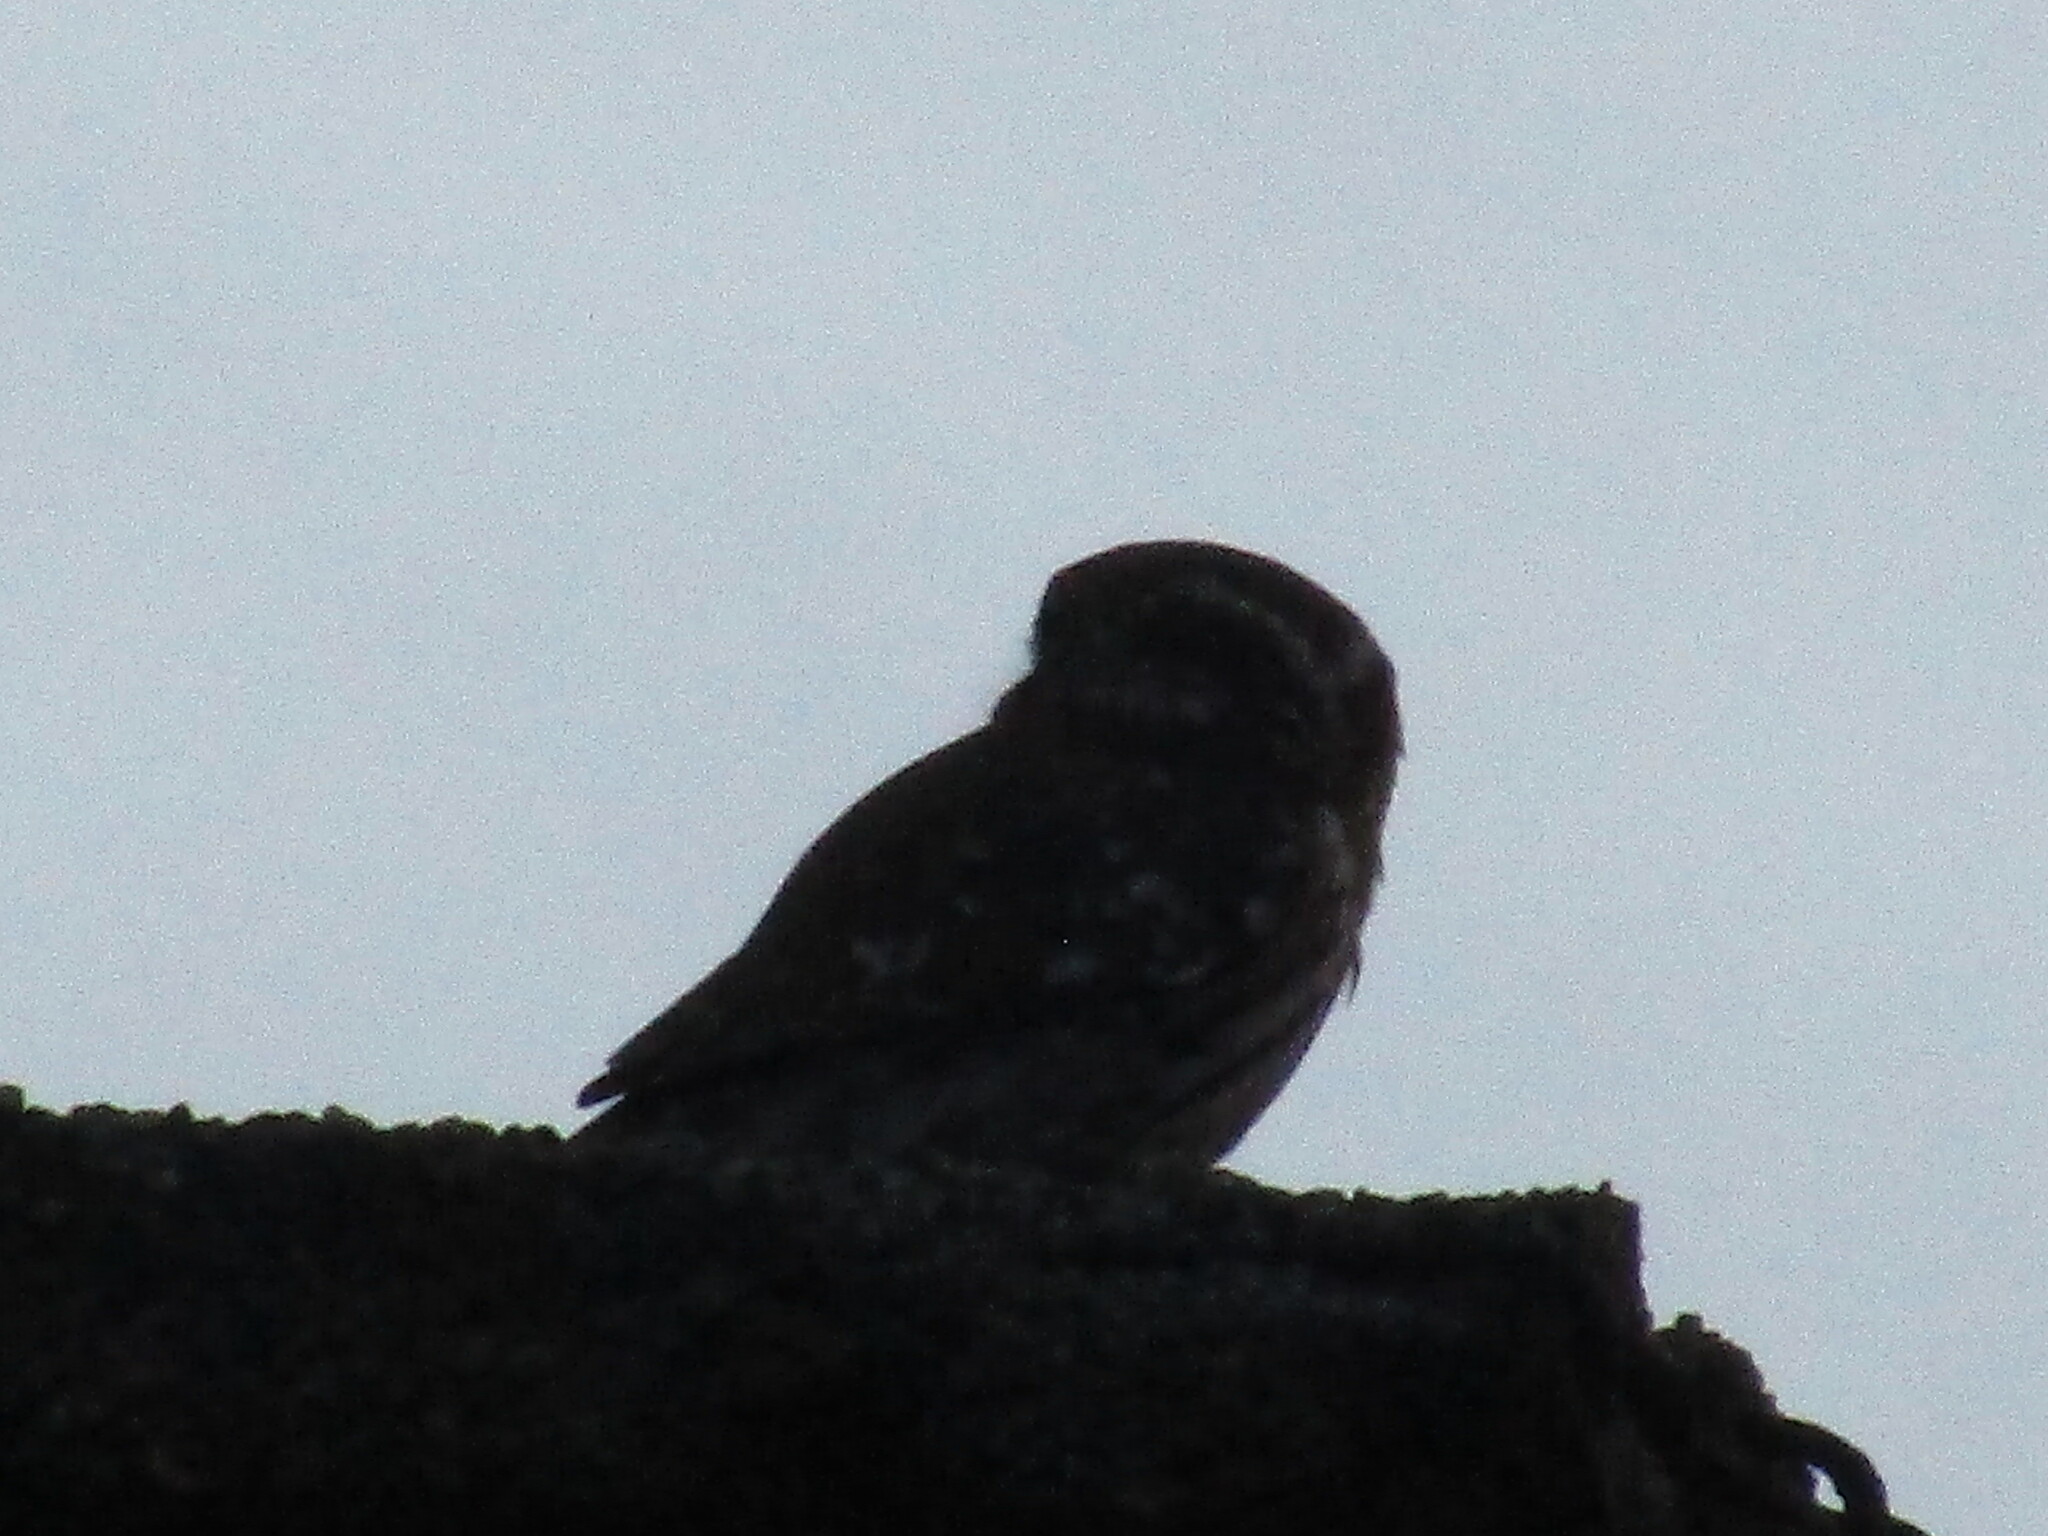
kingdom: Animalia
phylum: Chordata
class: Aves
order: Strigiformes
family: Strigidae
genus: Athene
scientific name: Athene noctua
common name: Little owl
